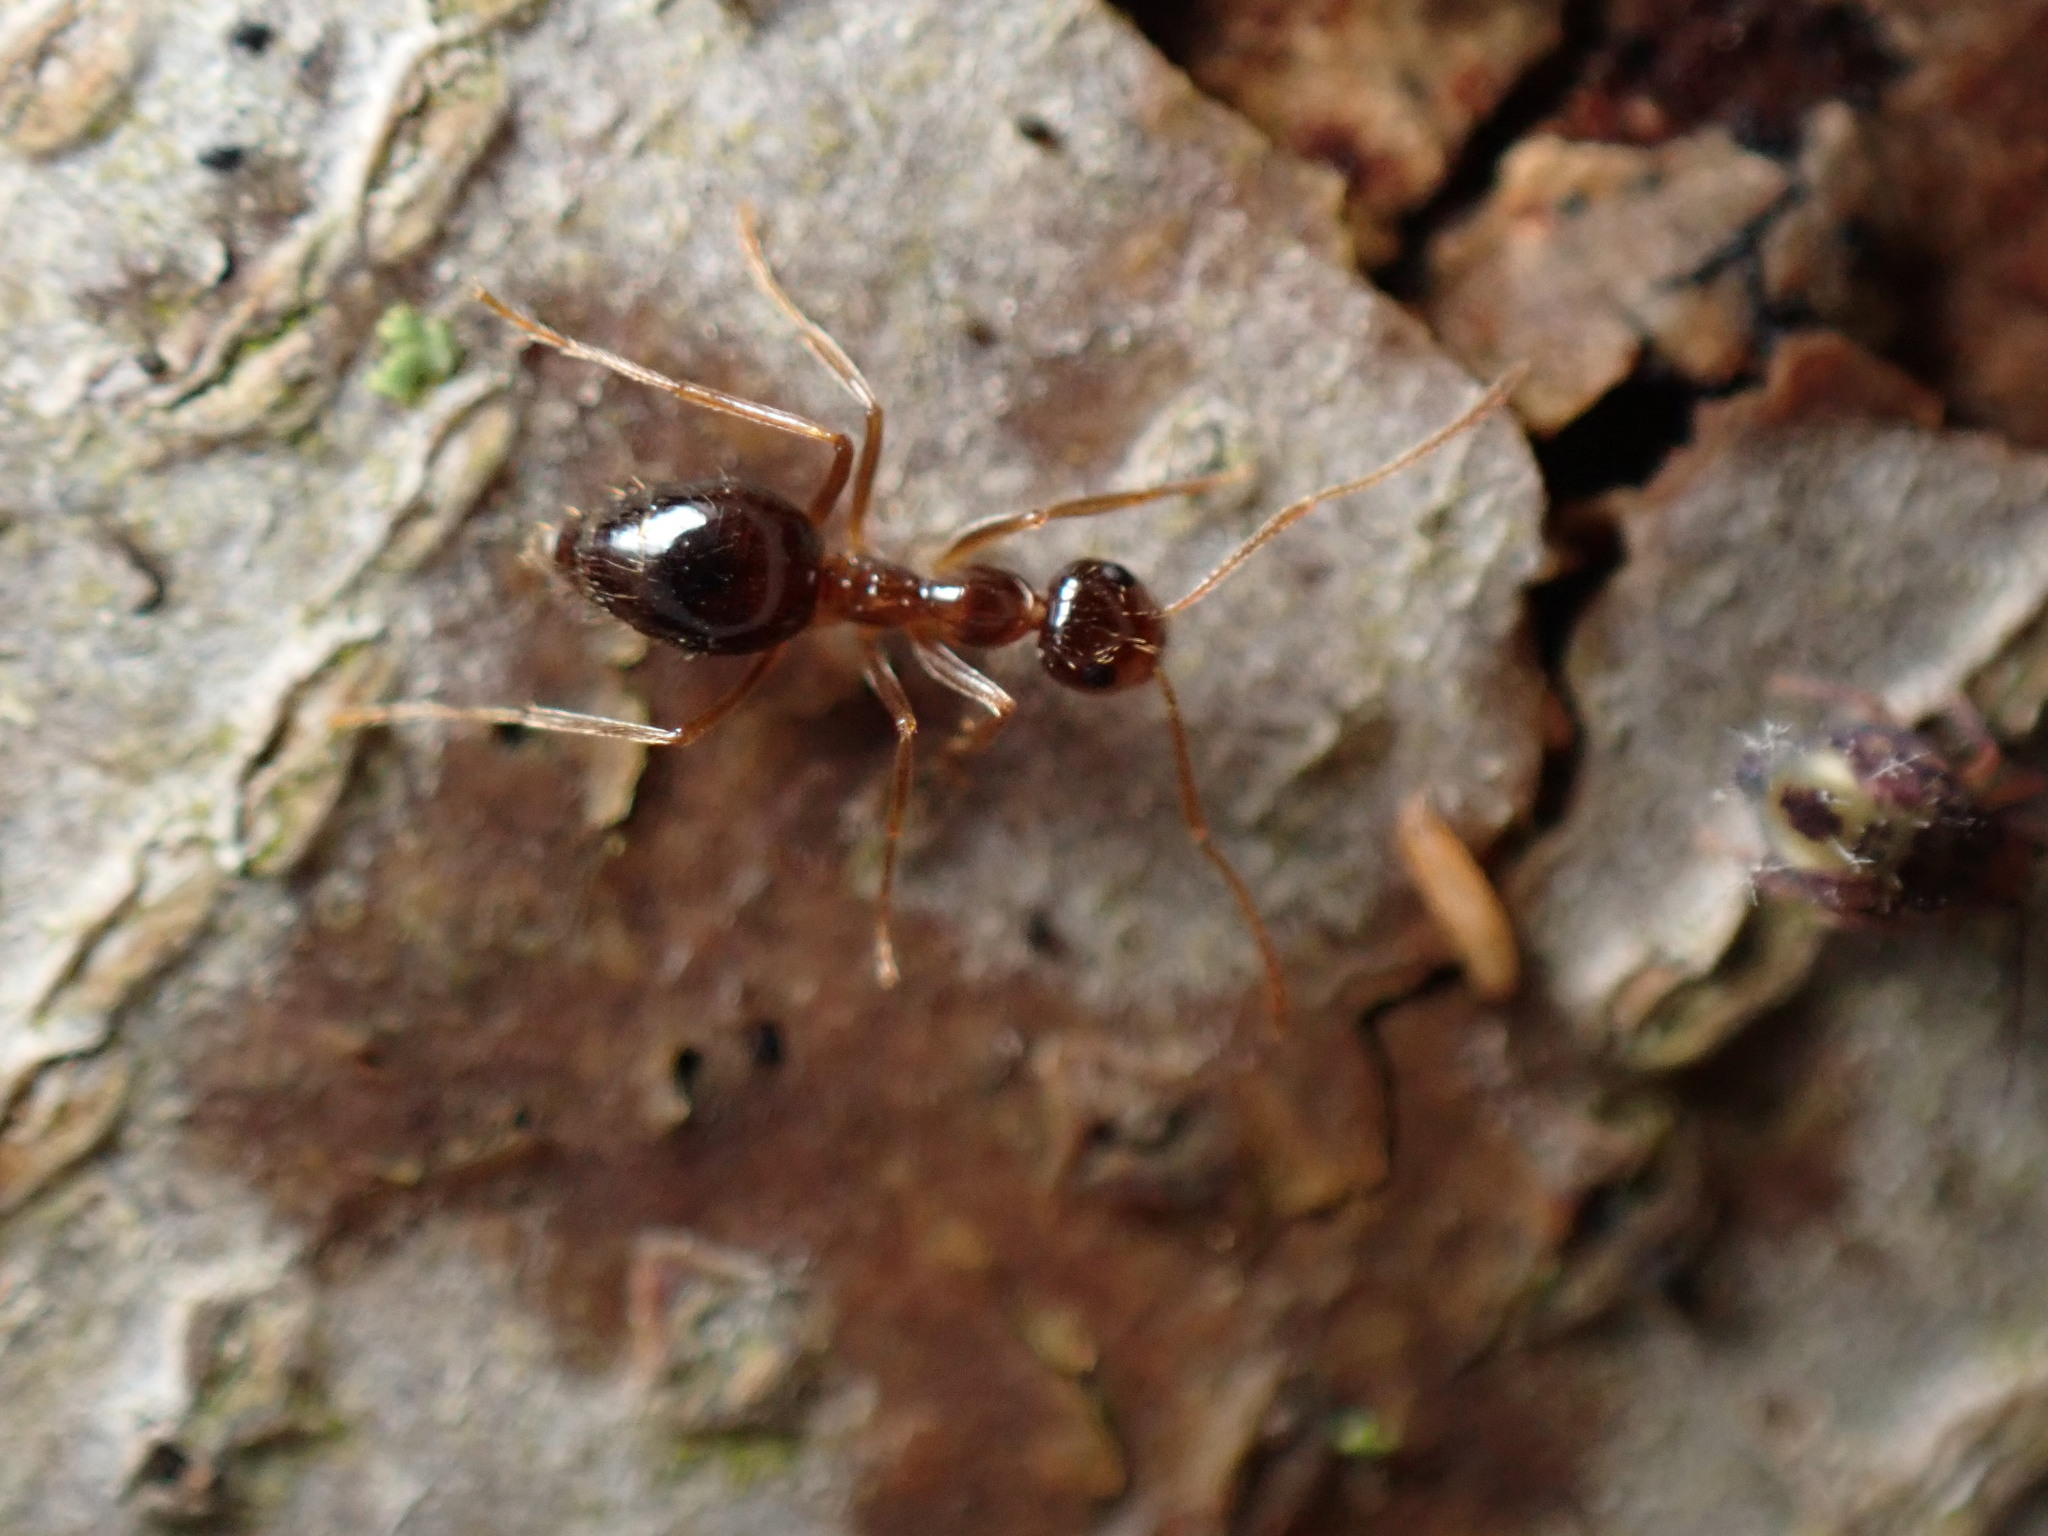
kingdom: Animalia
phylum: Arthropoda
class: Insecta
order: Hymenoptera
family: Formicidae
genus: Prenolepis
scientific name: Prenolepis imparis
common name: Small honey ant
